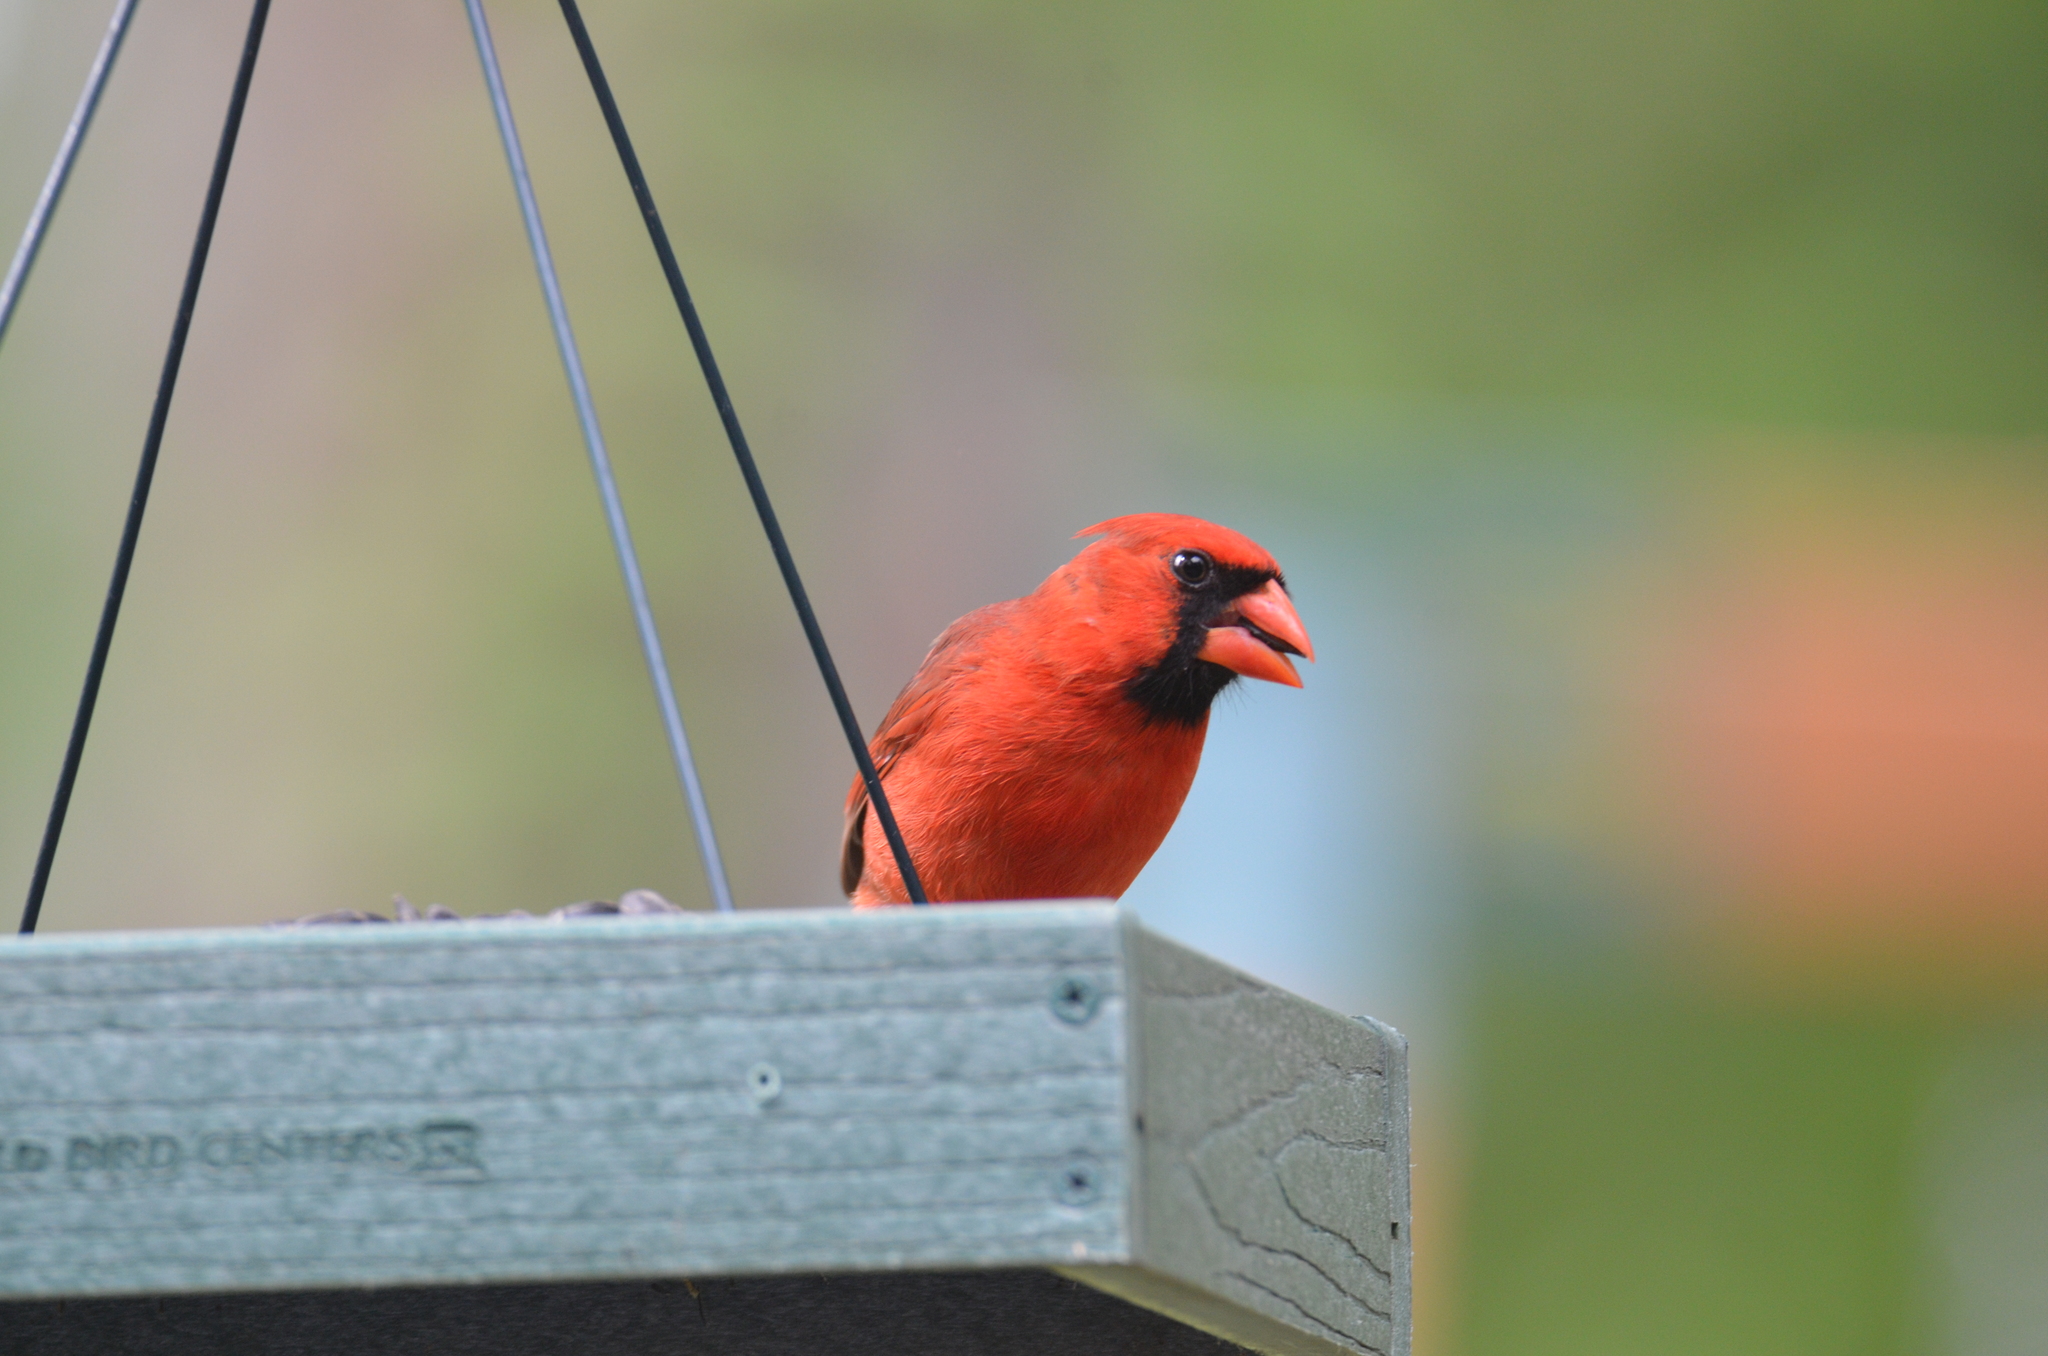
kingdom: Animalia
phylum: Chordata
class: Aves
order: Passeriformes
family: Cardinalidae
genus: Cardinalis
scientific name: Cardinalis cardinalis
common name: Northern cardinal
